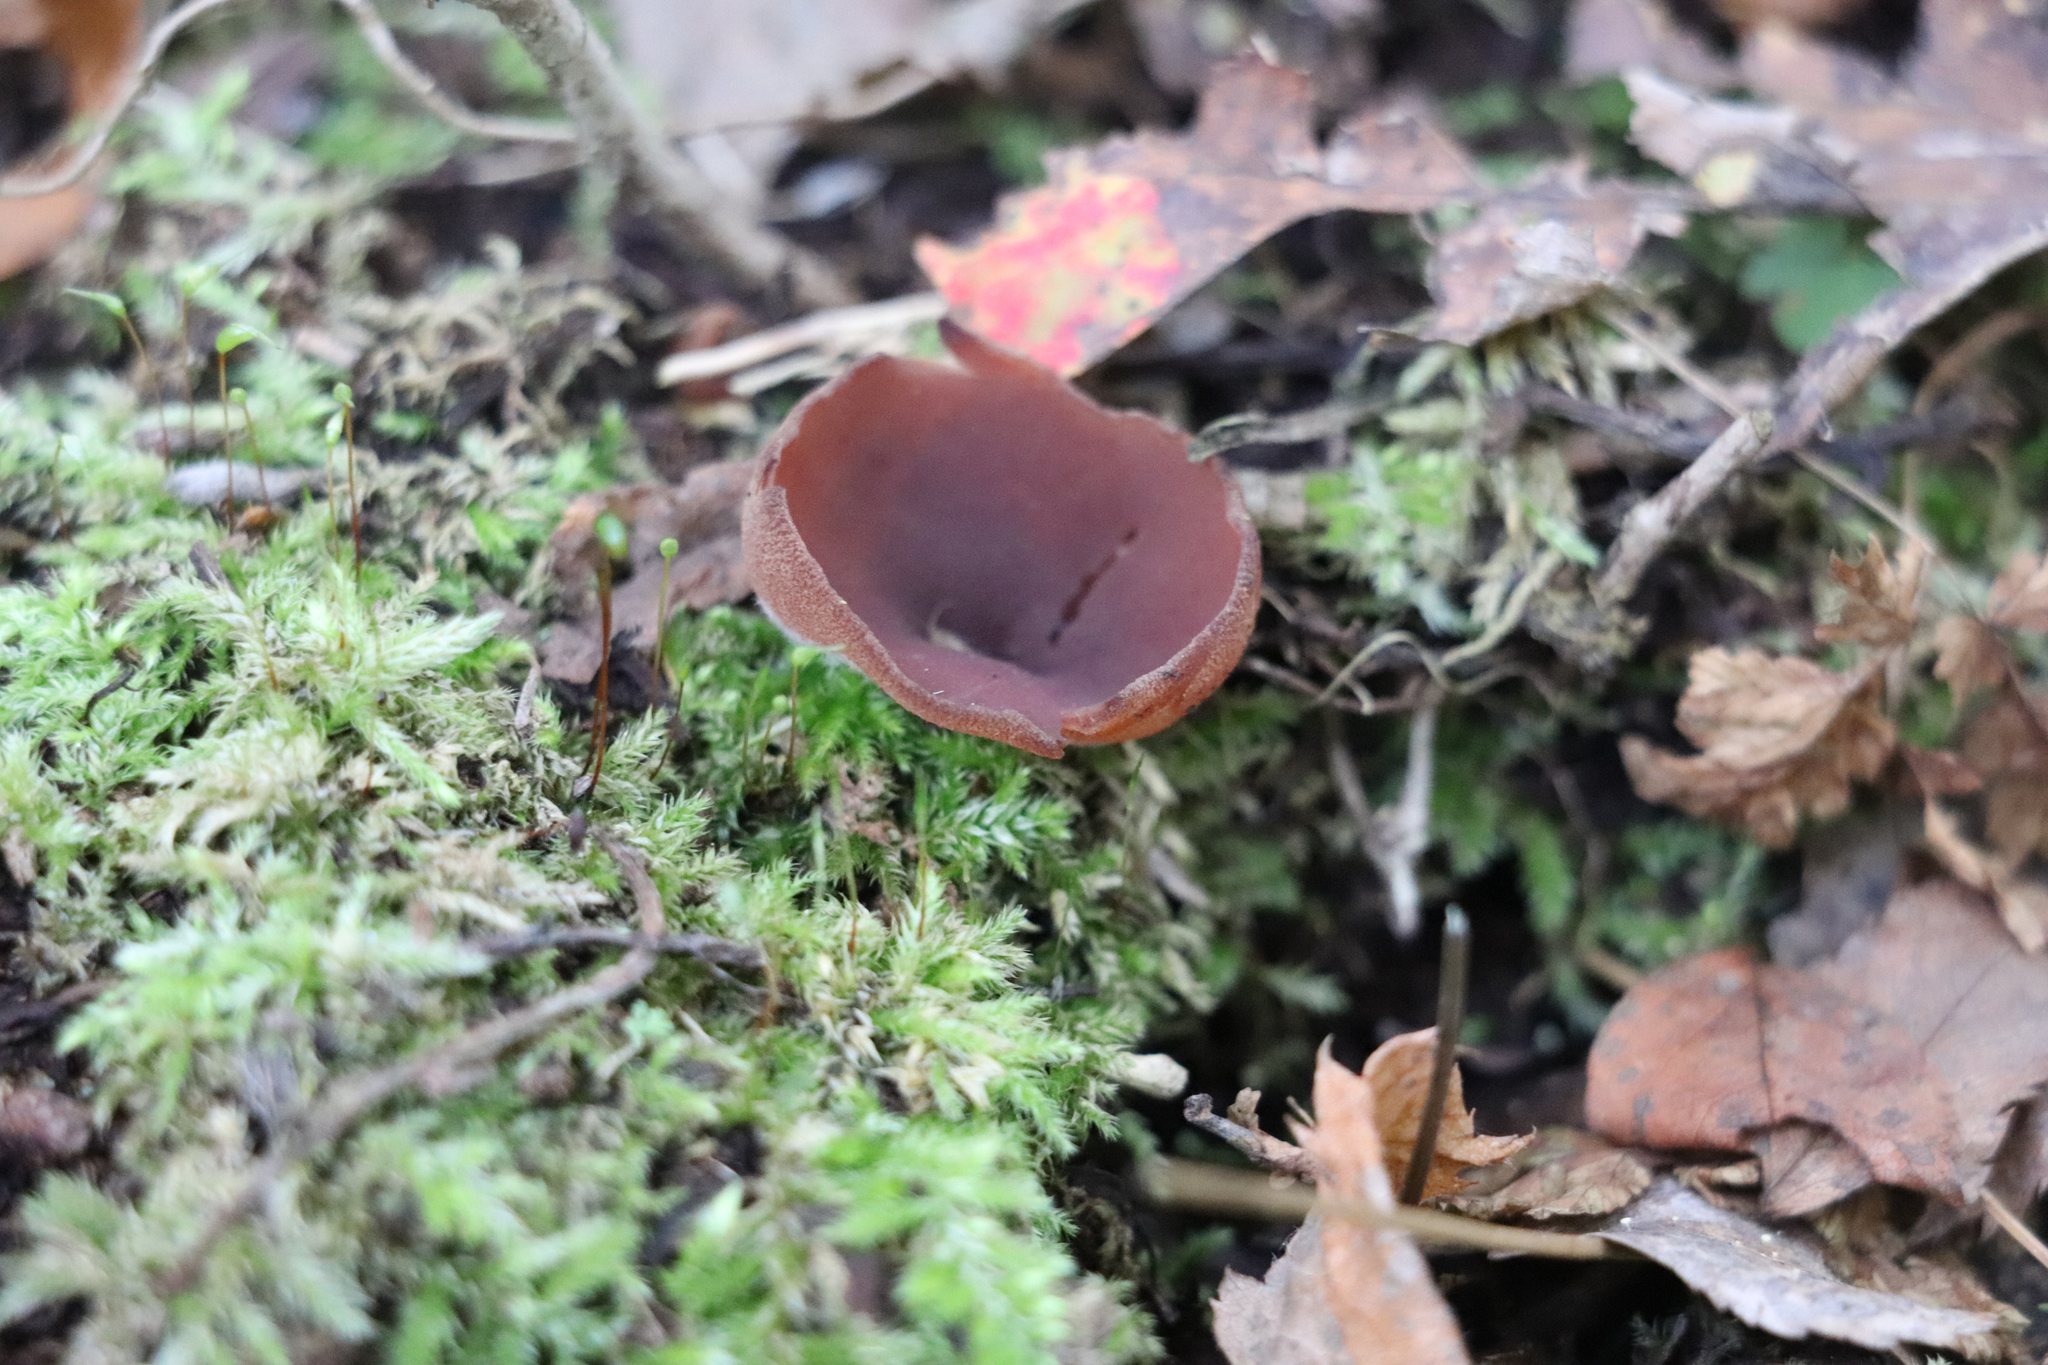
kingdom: Fungi
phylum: Ascomycota
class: Pezizomycetes
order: Pezizales
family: Pezizaceae
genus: Legaliana
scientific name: Legaliana badia
